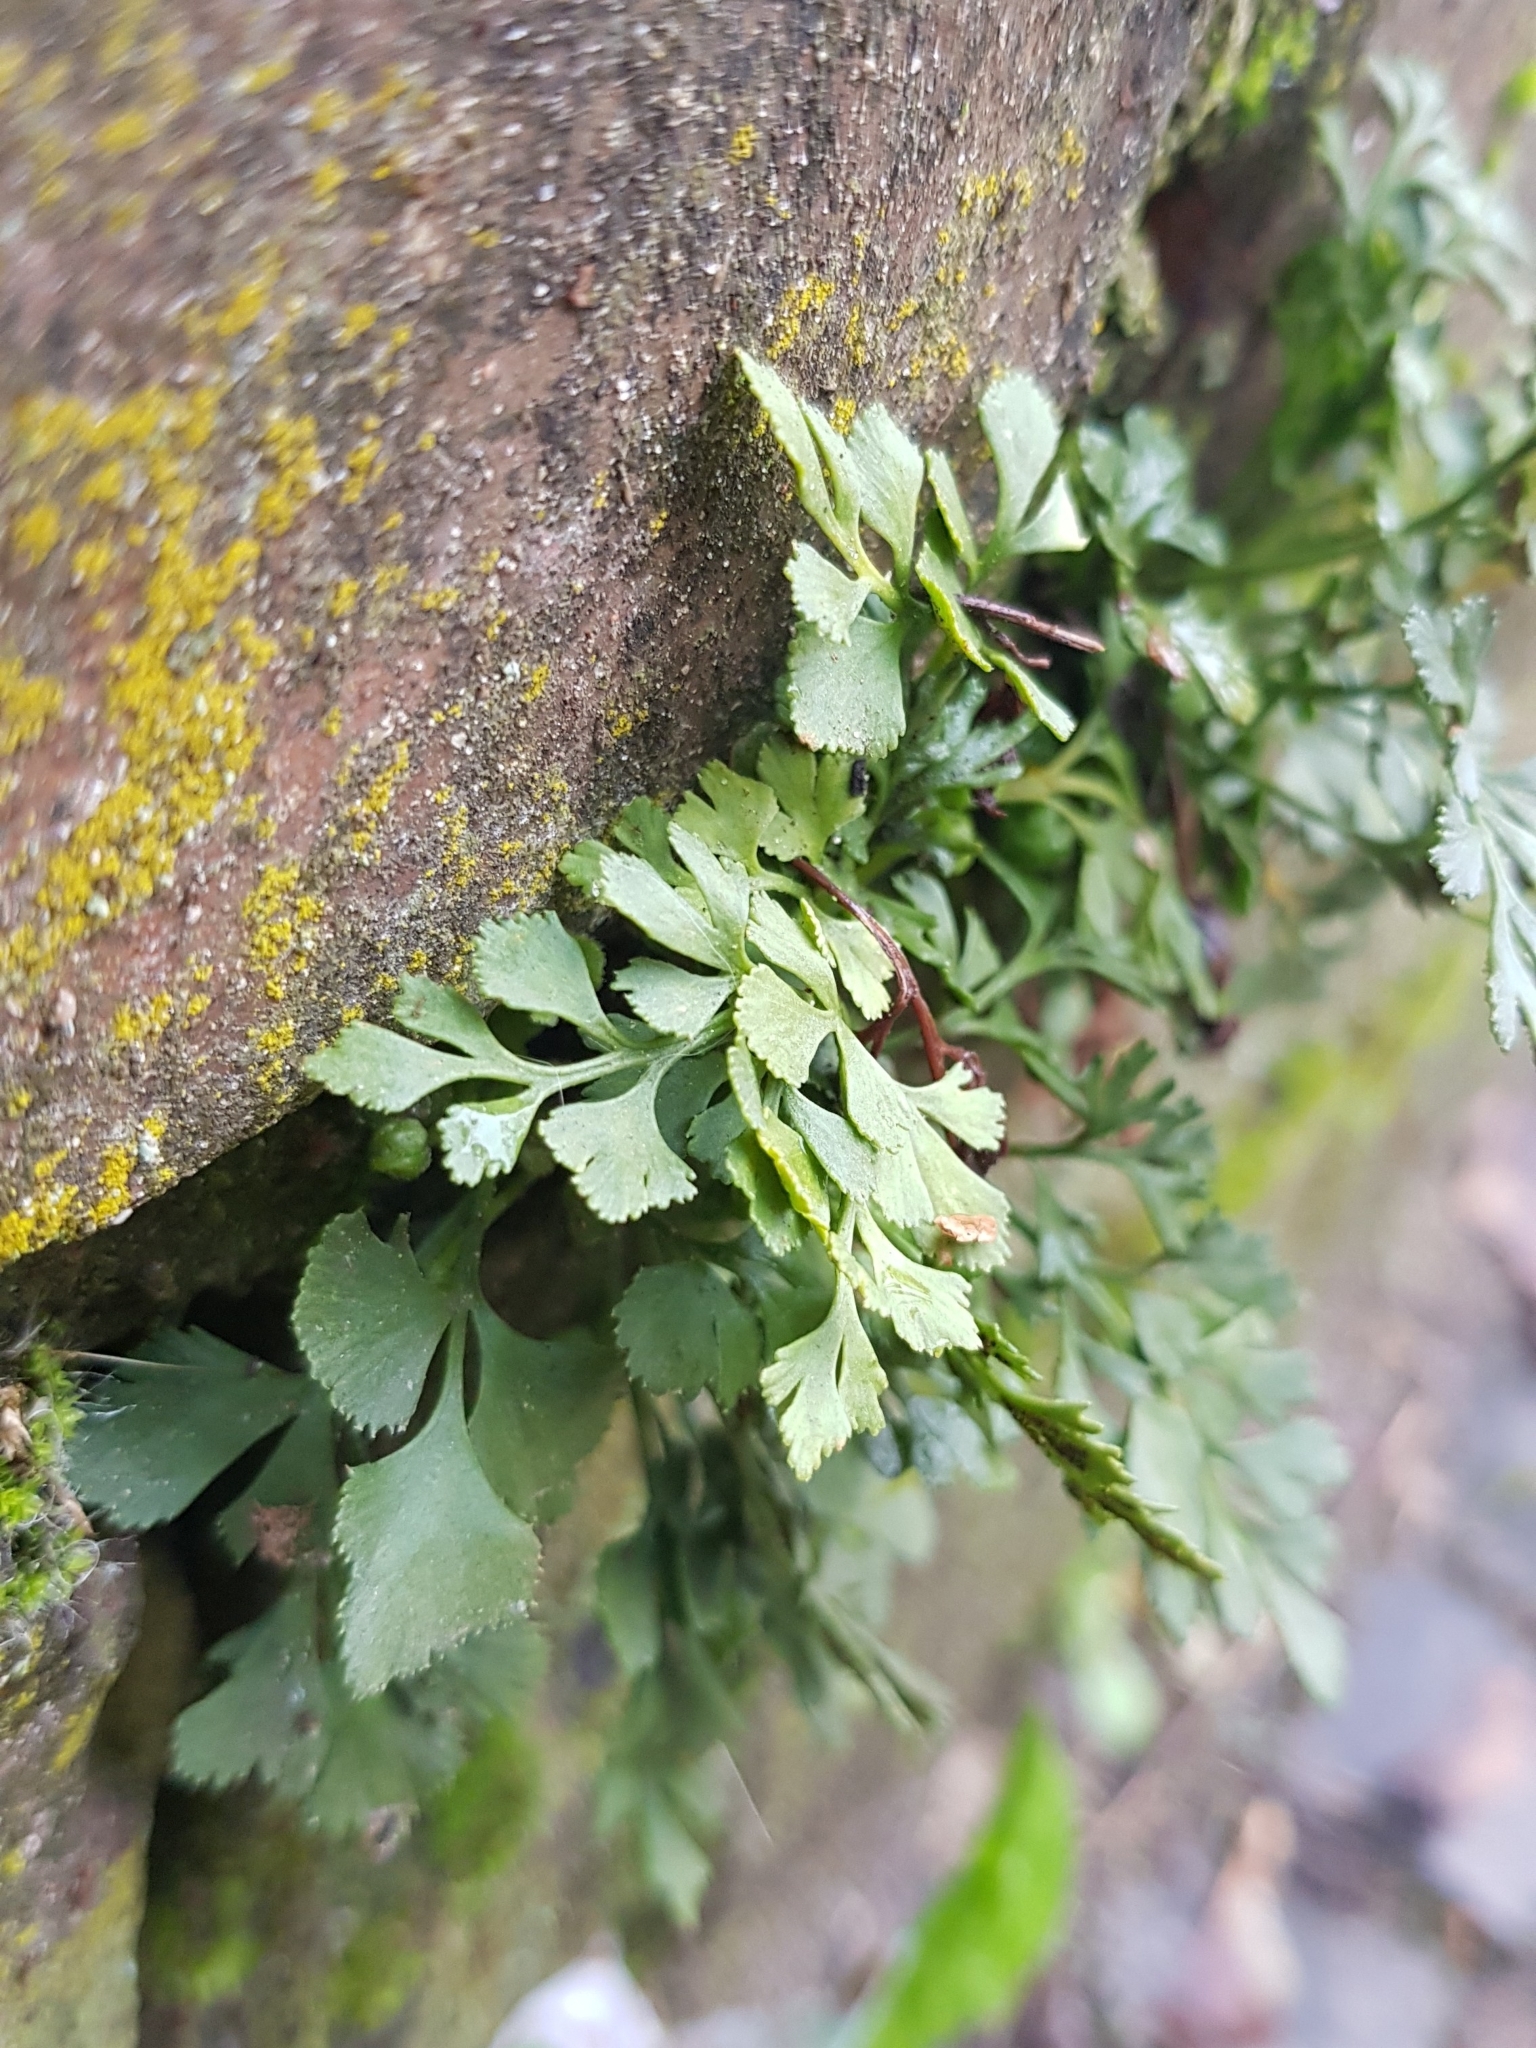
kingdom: Plantae
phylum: Tracheophyta
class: Polypodiopsida
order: Polypodiales
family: Aspleniaceae
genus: Asplenium
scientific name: Asplenium ruta-muraria
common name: Wall-rue
